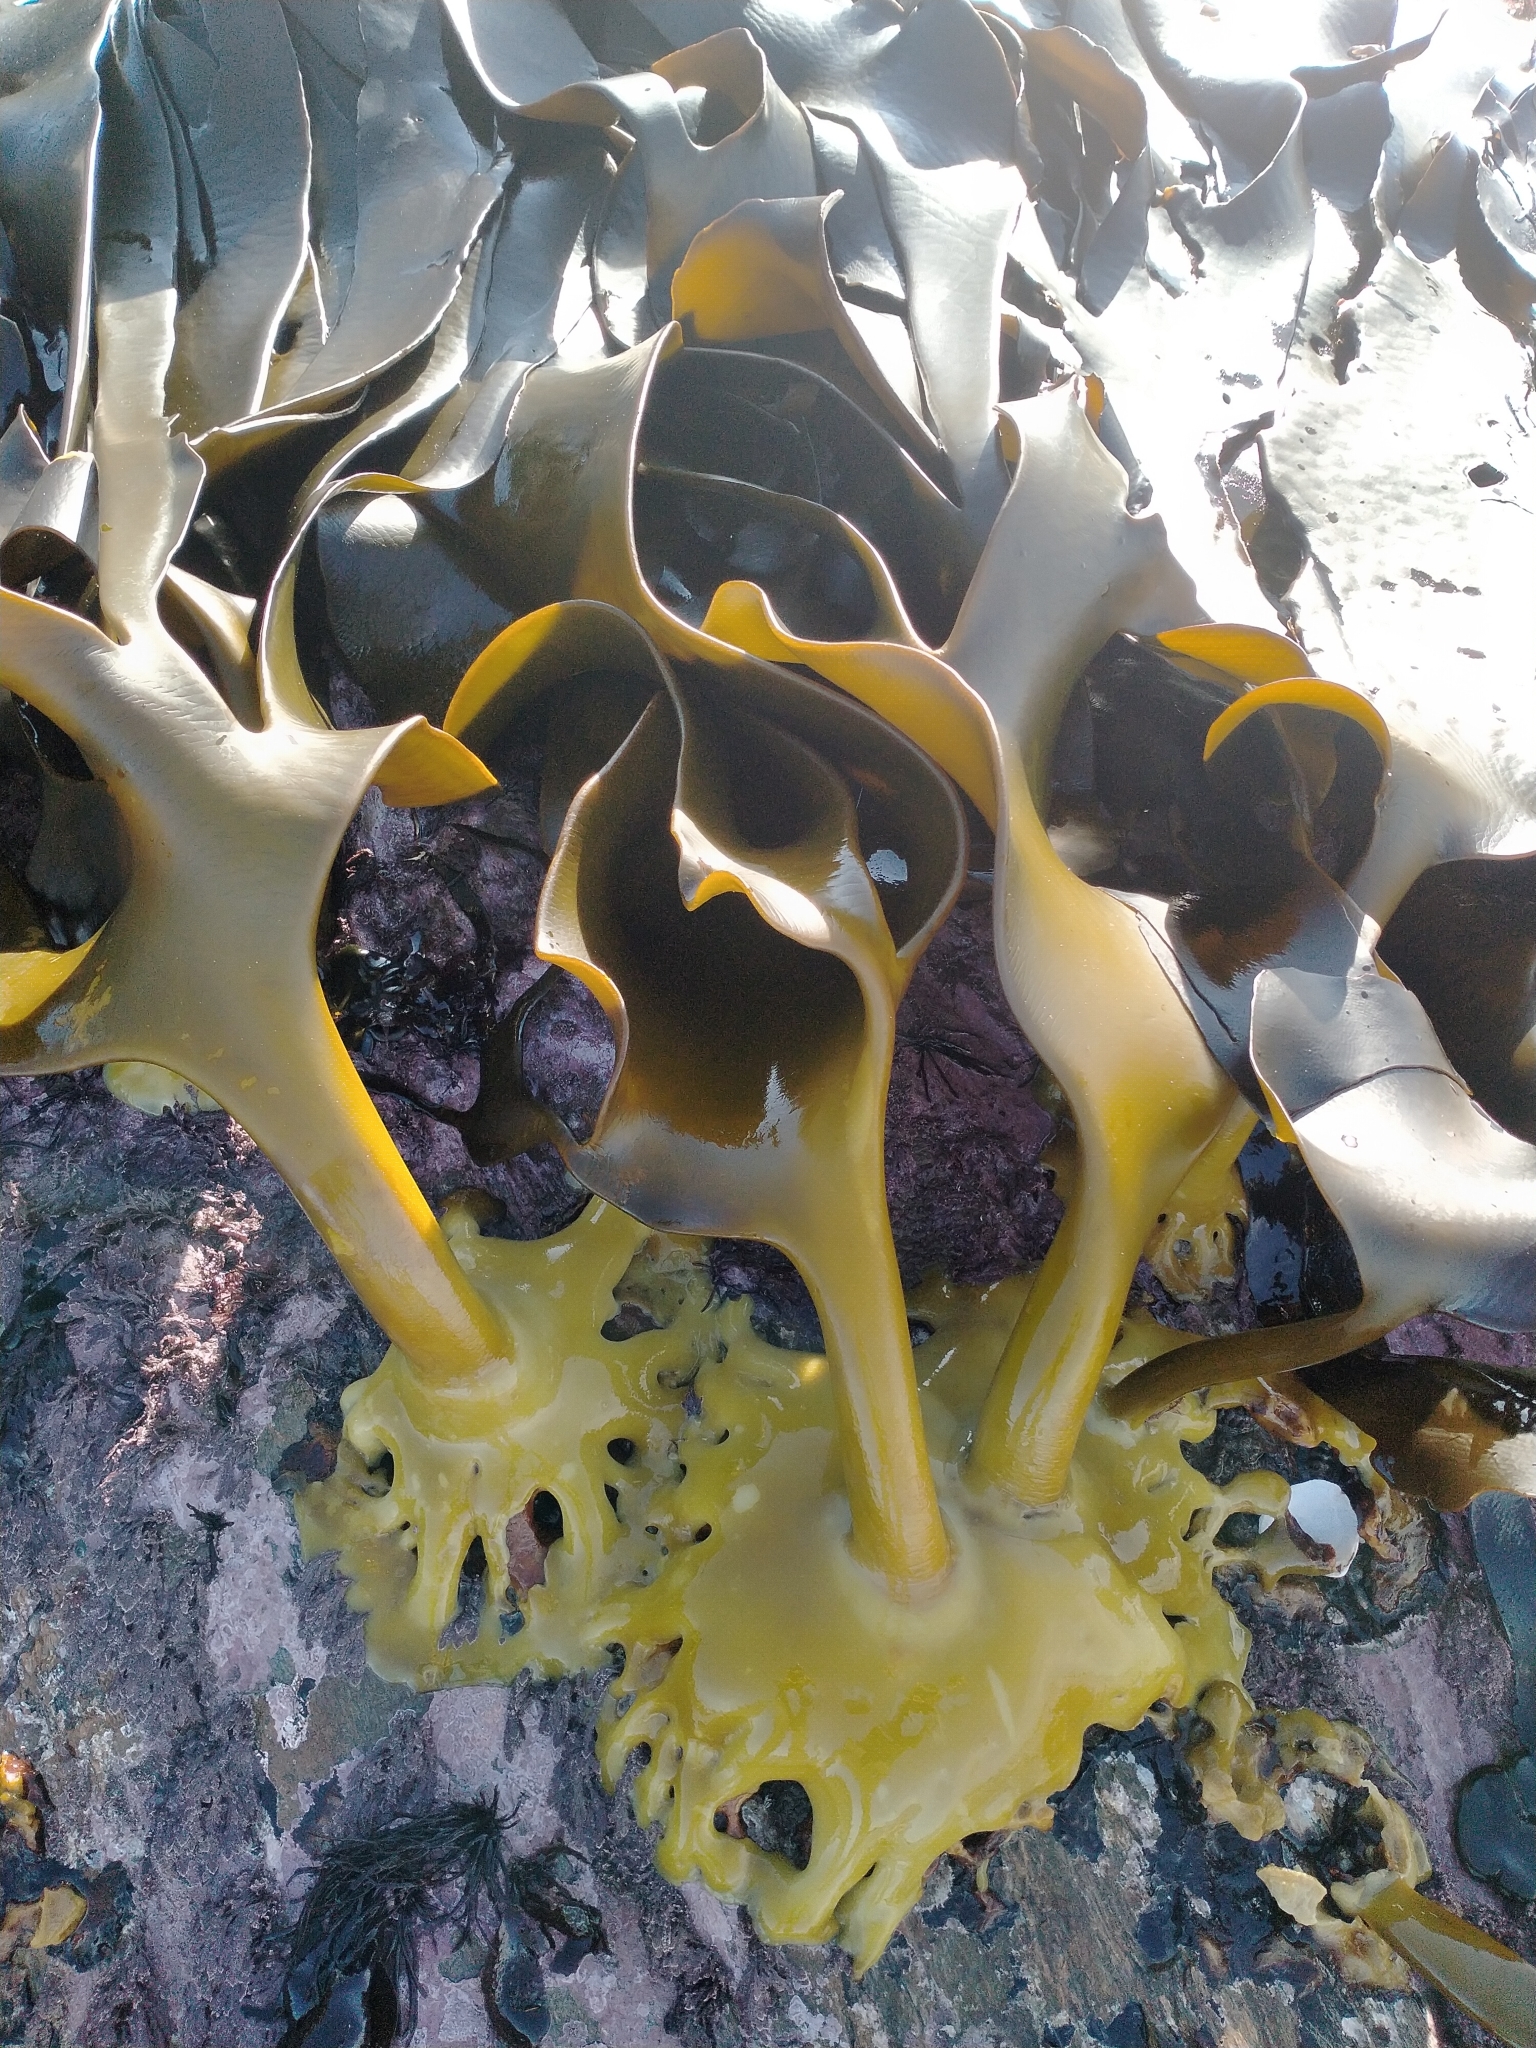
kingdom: Chromista
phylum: Ochrophyta
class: Phaeophyceae
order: Fucales
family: Durvillaeaceae
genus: Durvillaea
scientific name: Durvillaea antarctica
